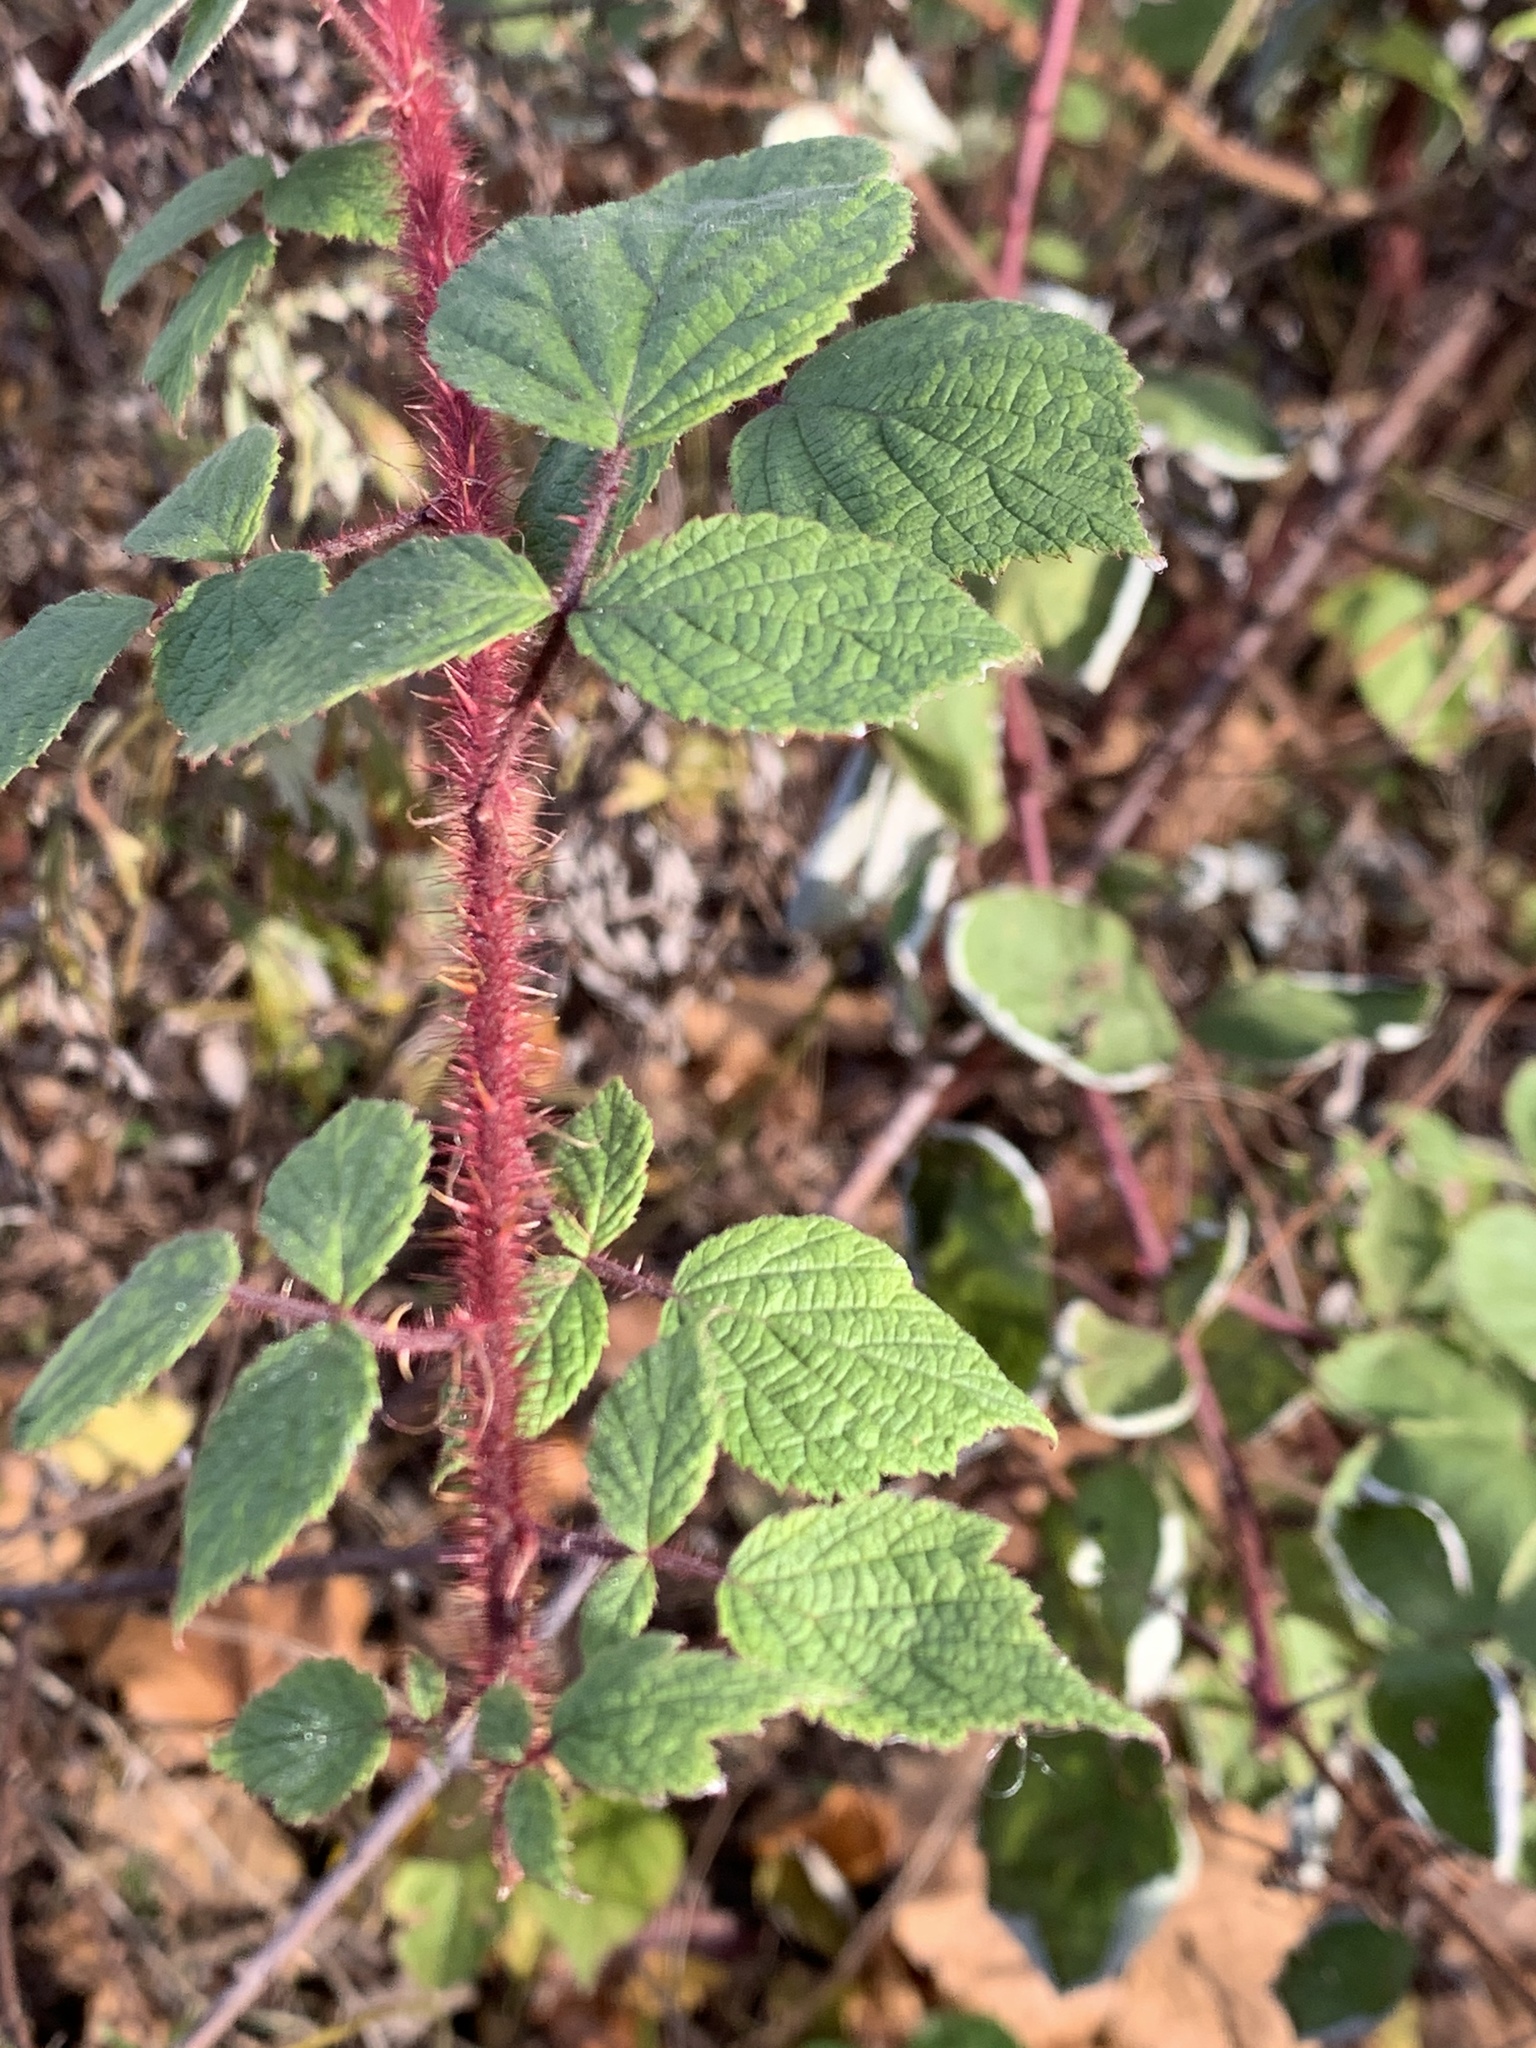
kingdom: Plantae
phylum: Tracheophyta
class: Magnoliopsida
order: Rosales
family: Rosaceae
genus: Rubus
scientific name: Rubus phoenicolasius
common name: Japanese wineberry
